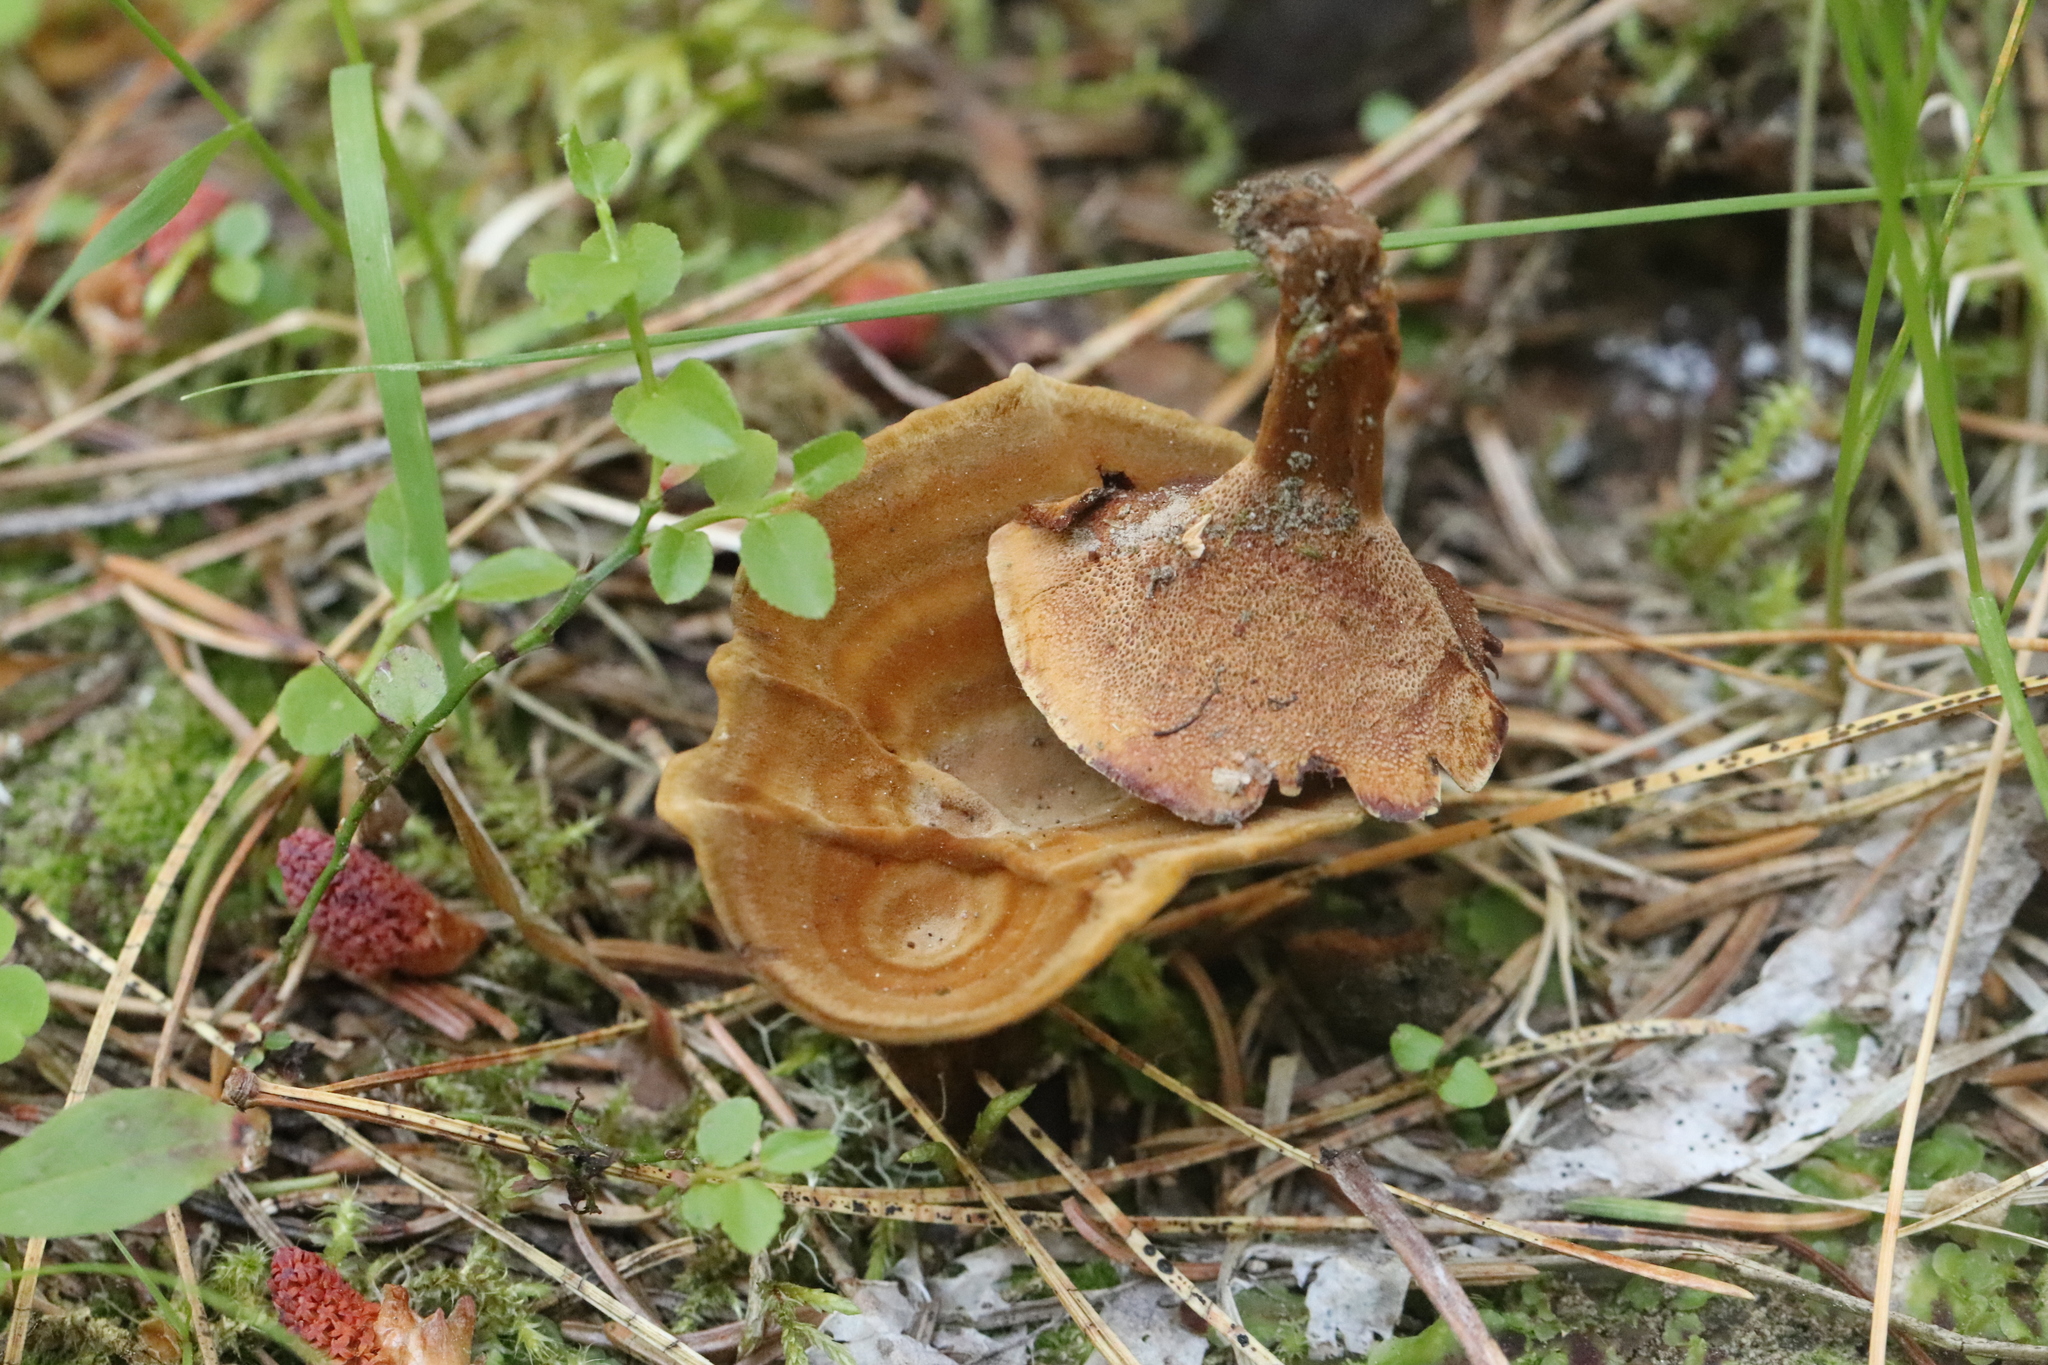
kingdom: Fungi
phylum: Basidiomycota
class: Agaricomycetes
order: Hymenochaetales
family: Hymenochaetaceae
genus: Coltricia
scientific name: Coltricia perennis
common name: Tiger's eye
